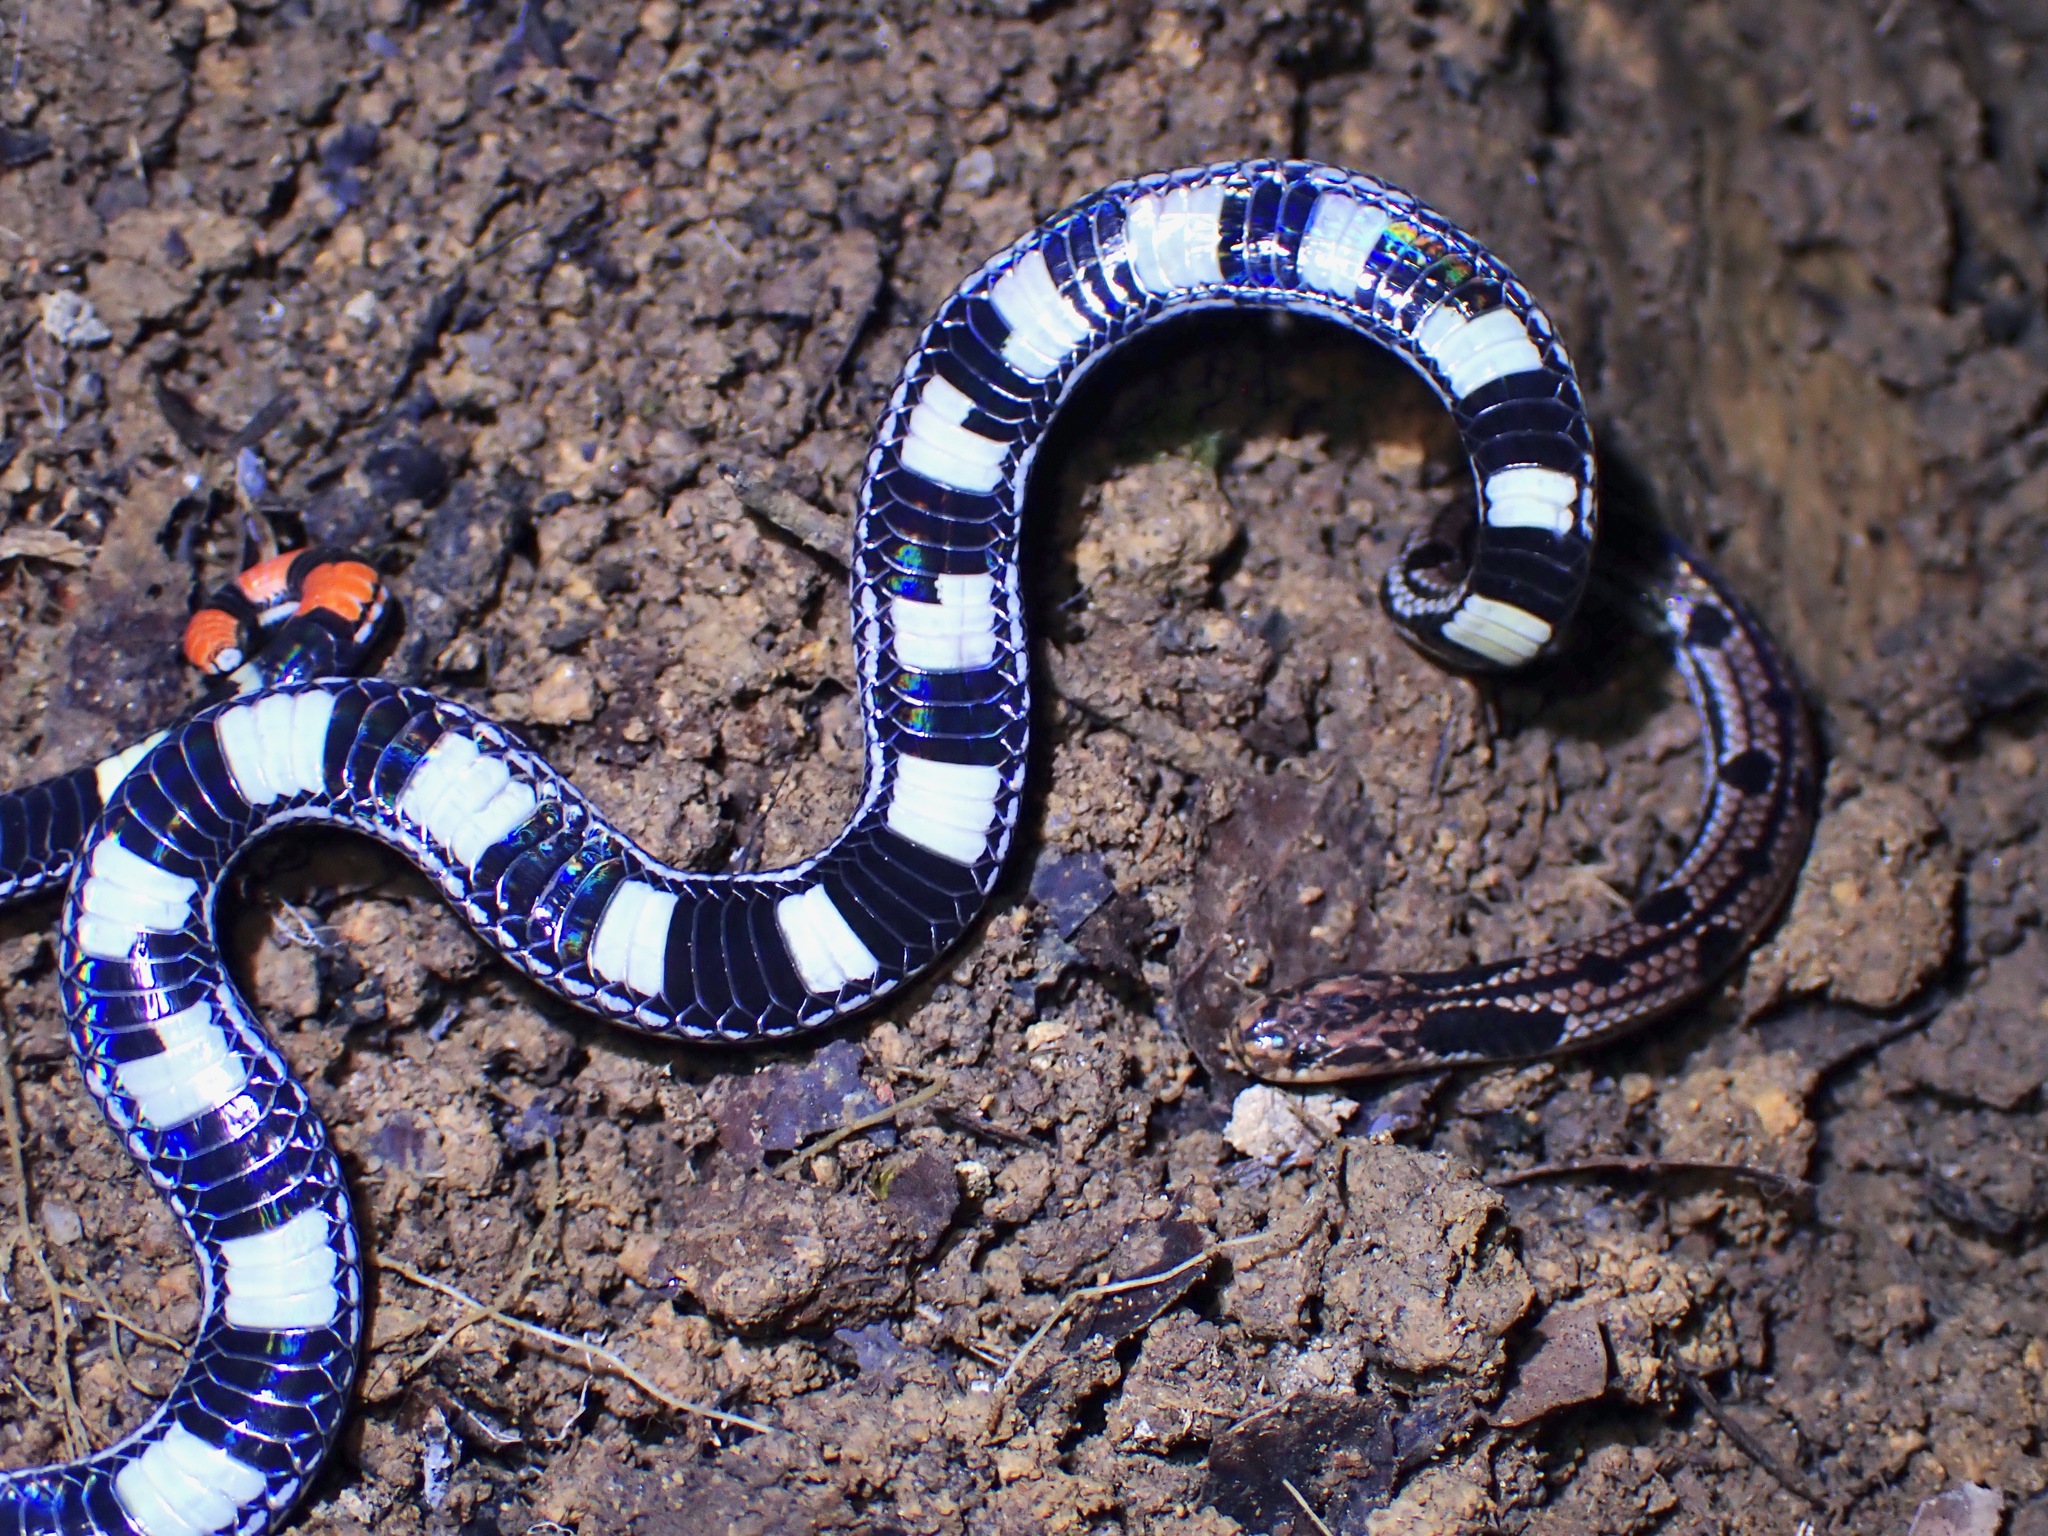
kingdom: Animalia
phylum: Chordata
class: Squamata
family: Elapidae
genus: Calliophis
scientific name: Calliophis gracilis
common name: Spotted coral snake
